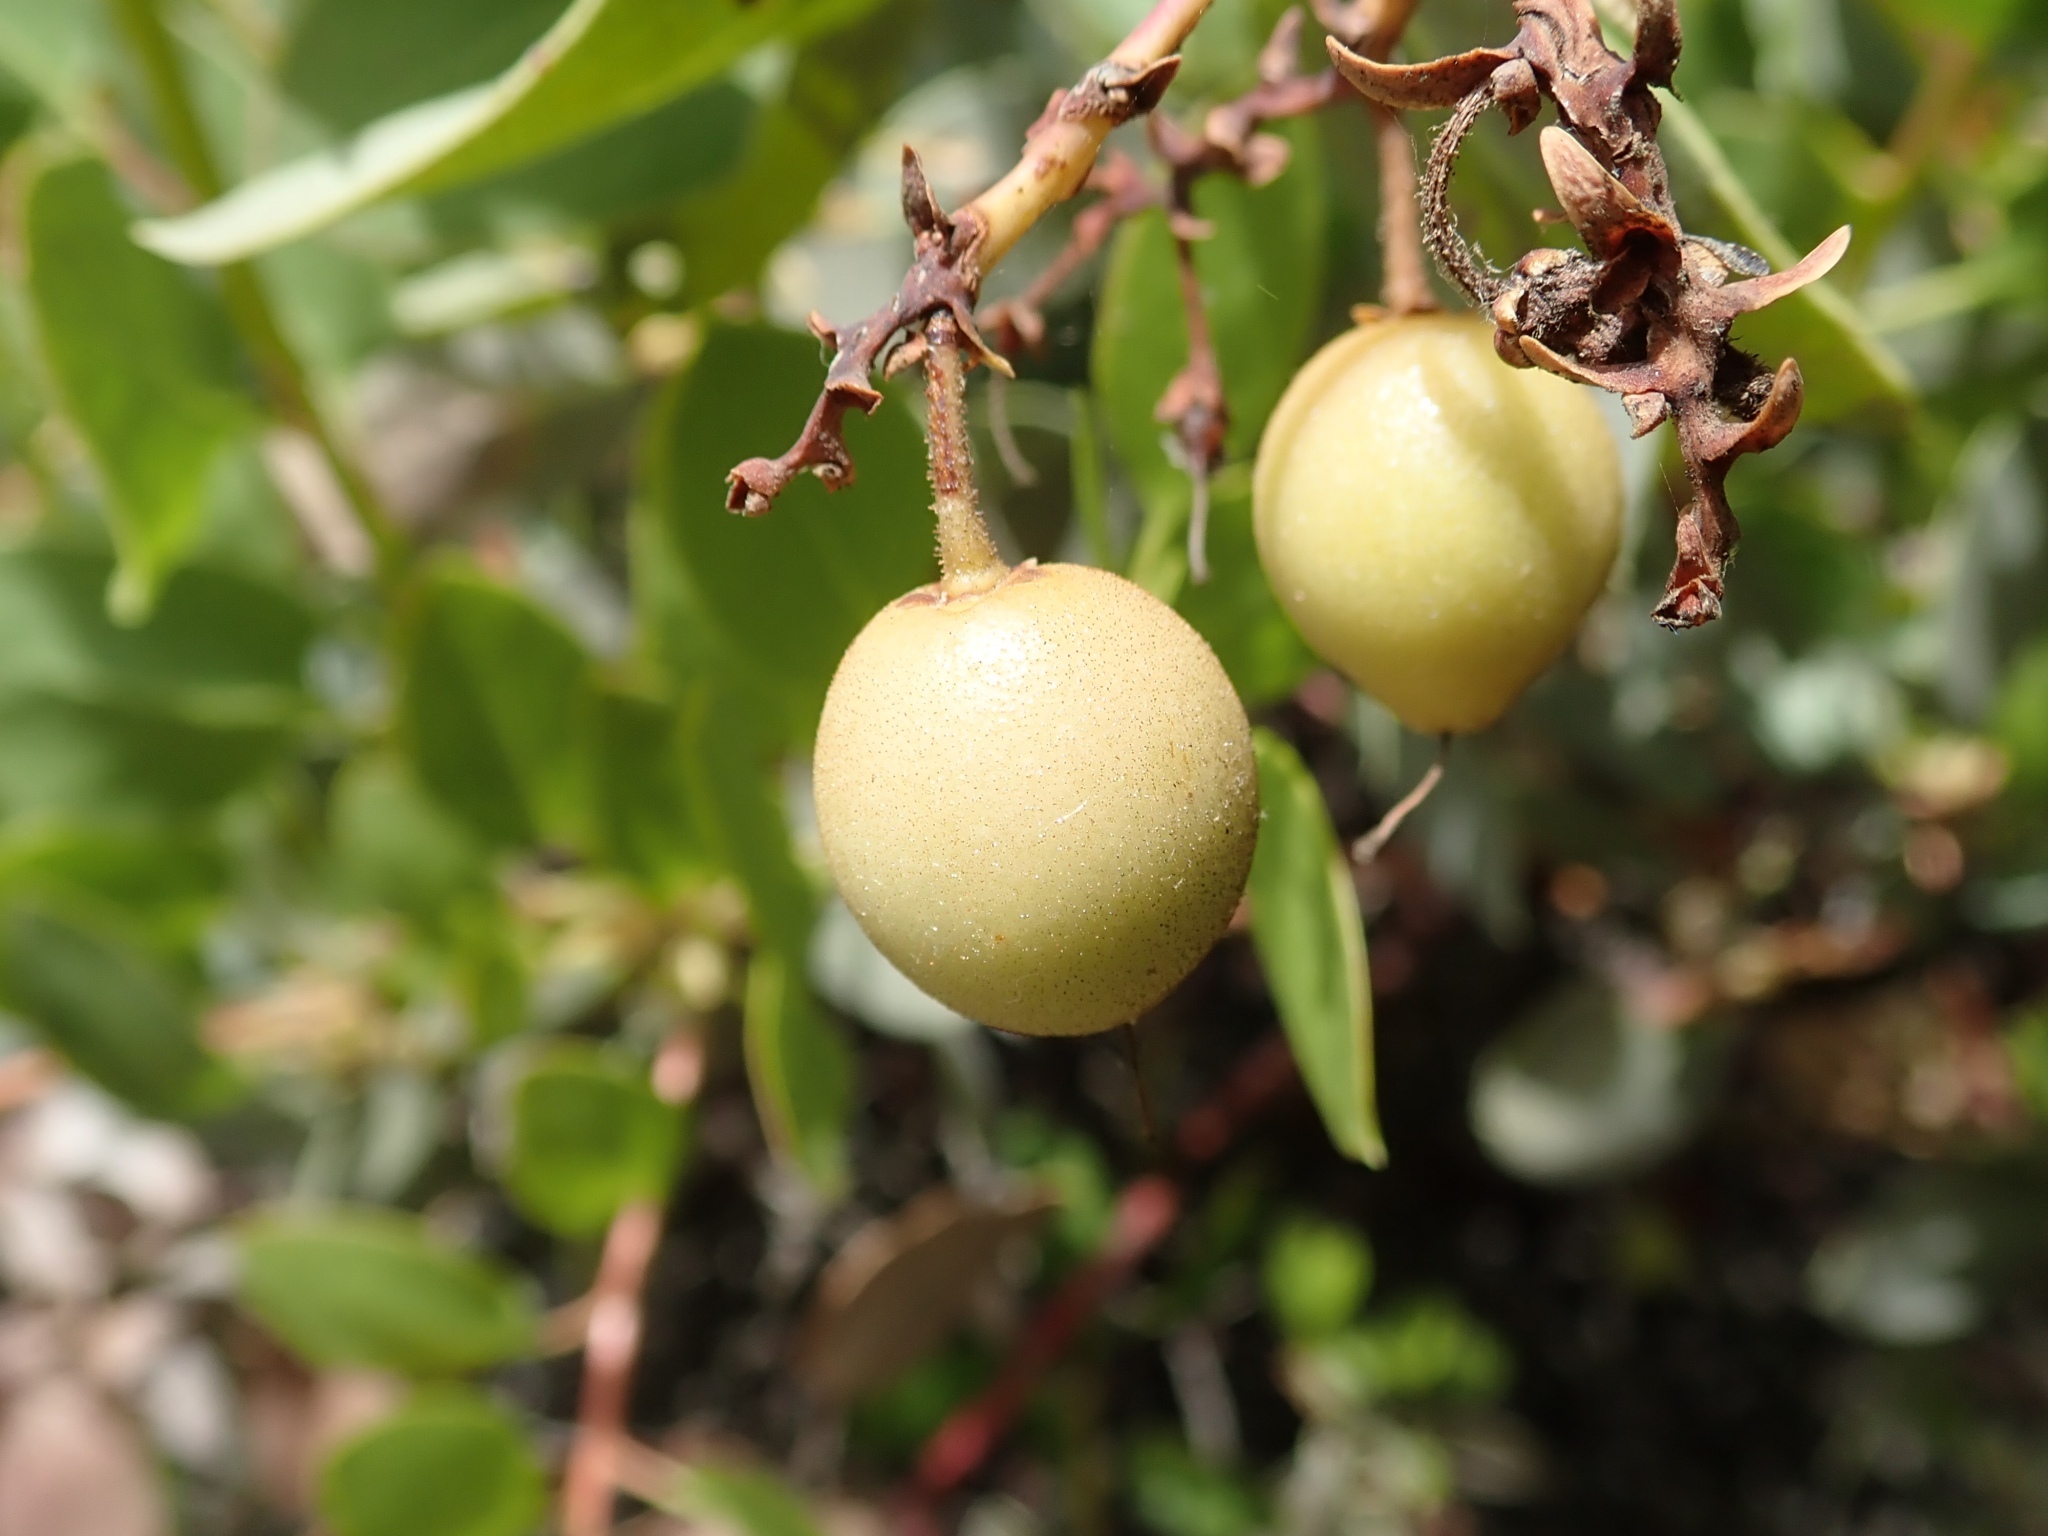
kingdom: Plantae
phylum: Tracheophyta
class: Magnoliopsida
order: Ericales
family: Ericaceae
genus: Arctostaphylos
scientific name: Arctostaphylos glauca
